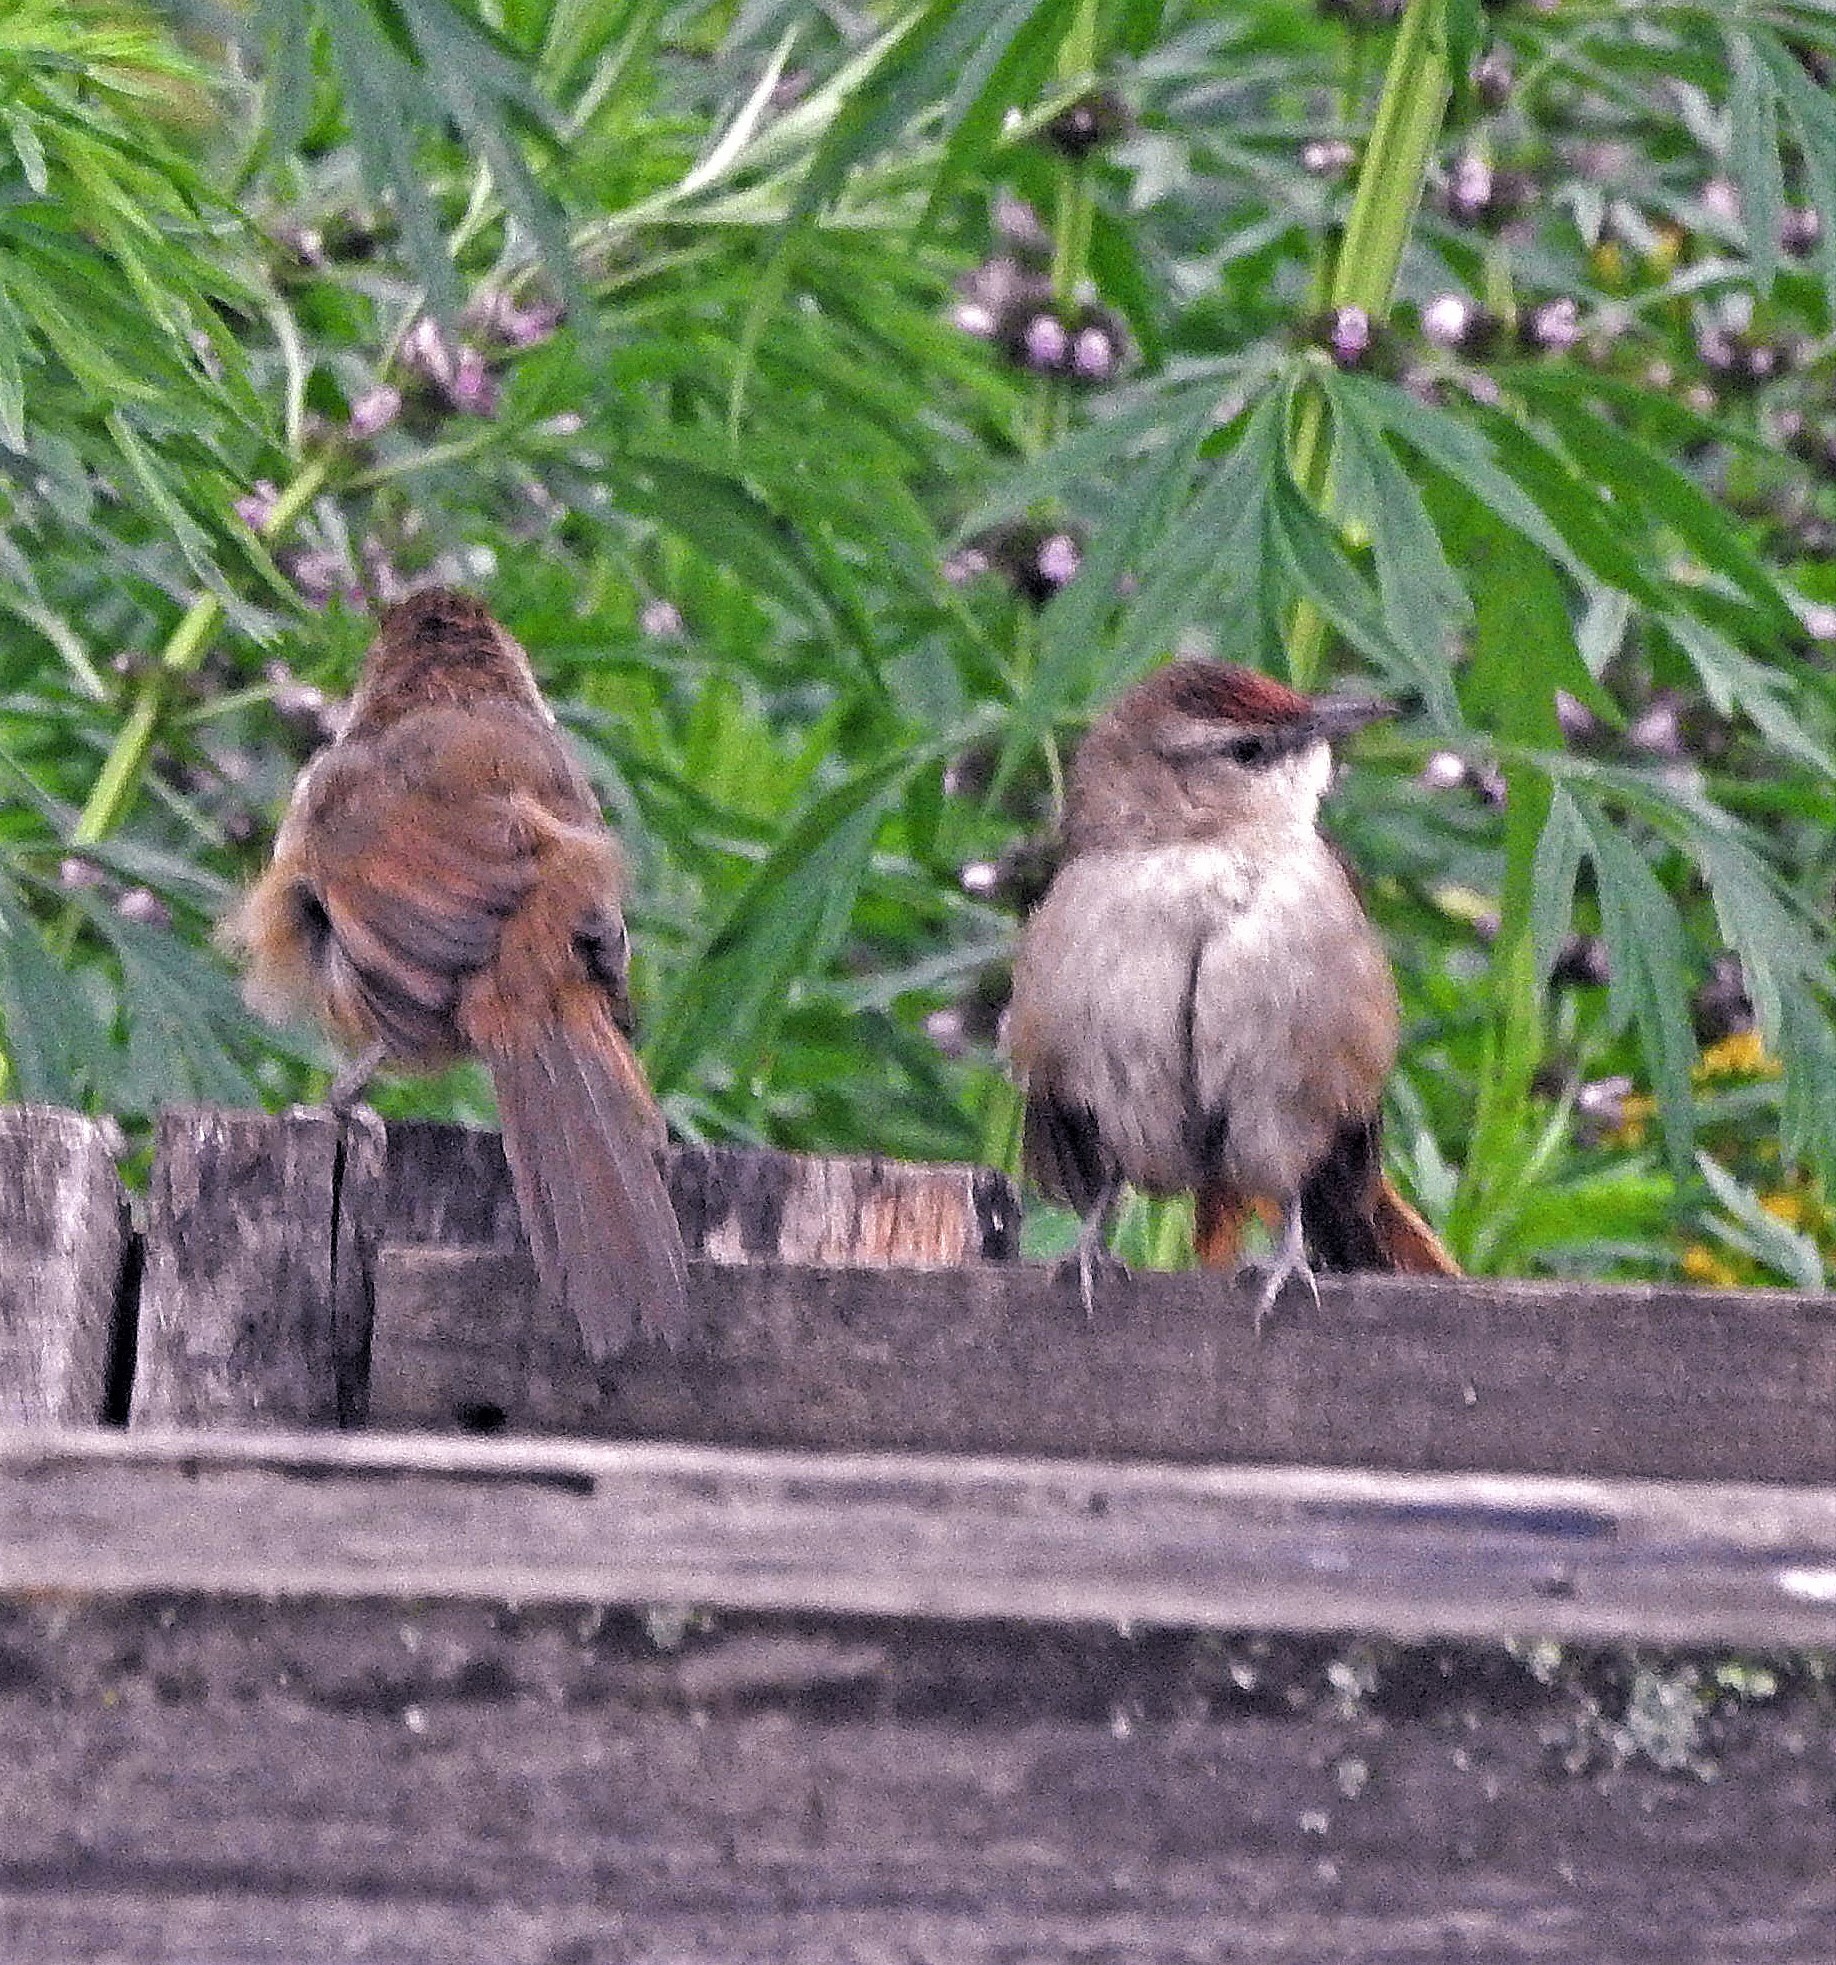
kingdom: Animalia
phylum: Chordata
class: Aves
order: Passeriformes
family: Furnariidae
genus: Phacellodomus
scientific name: Phacellodomus rufifrons
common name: Rufous-fronted thornbird
